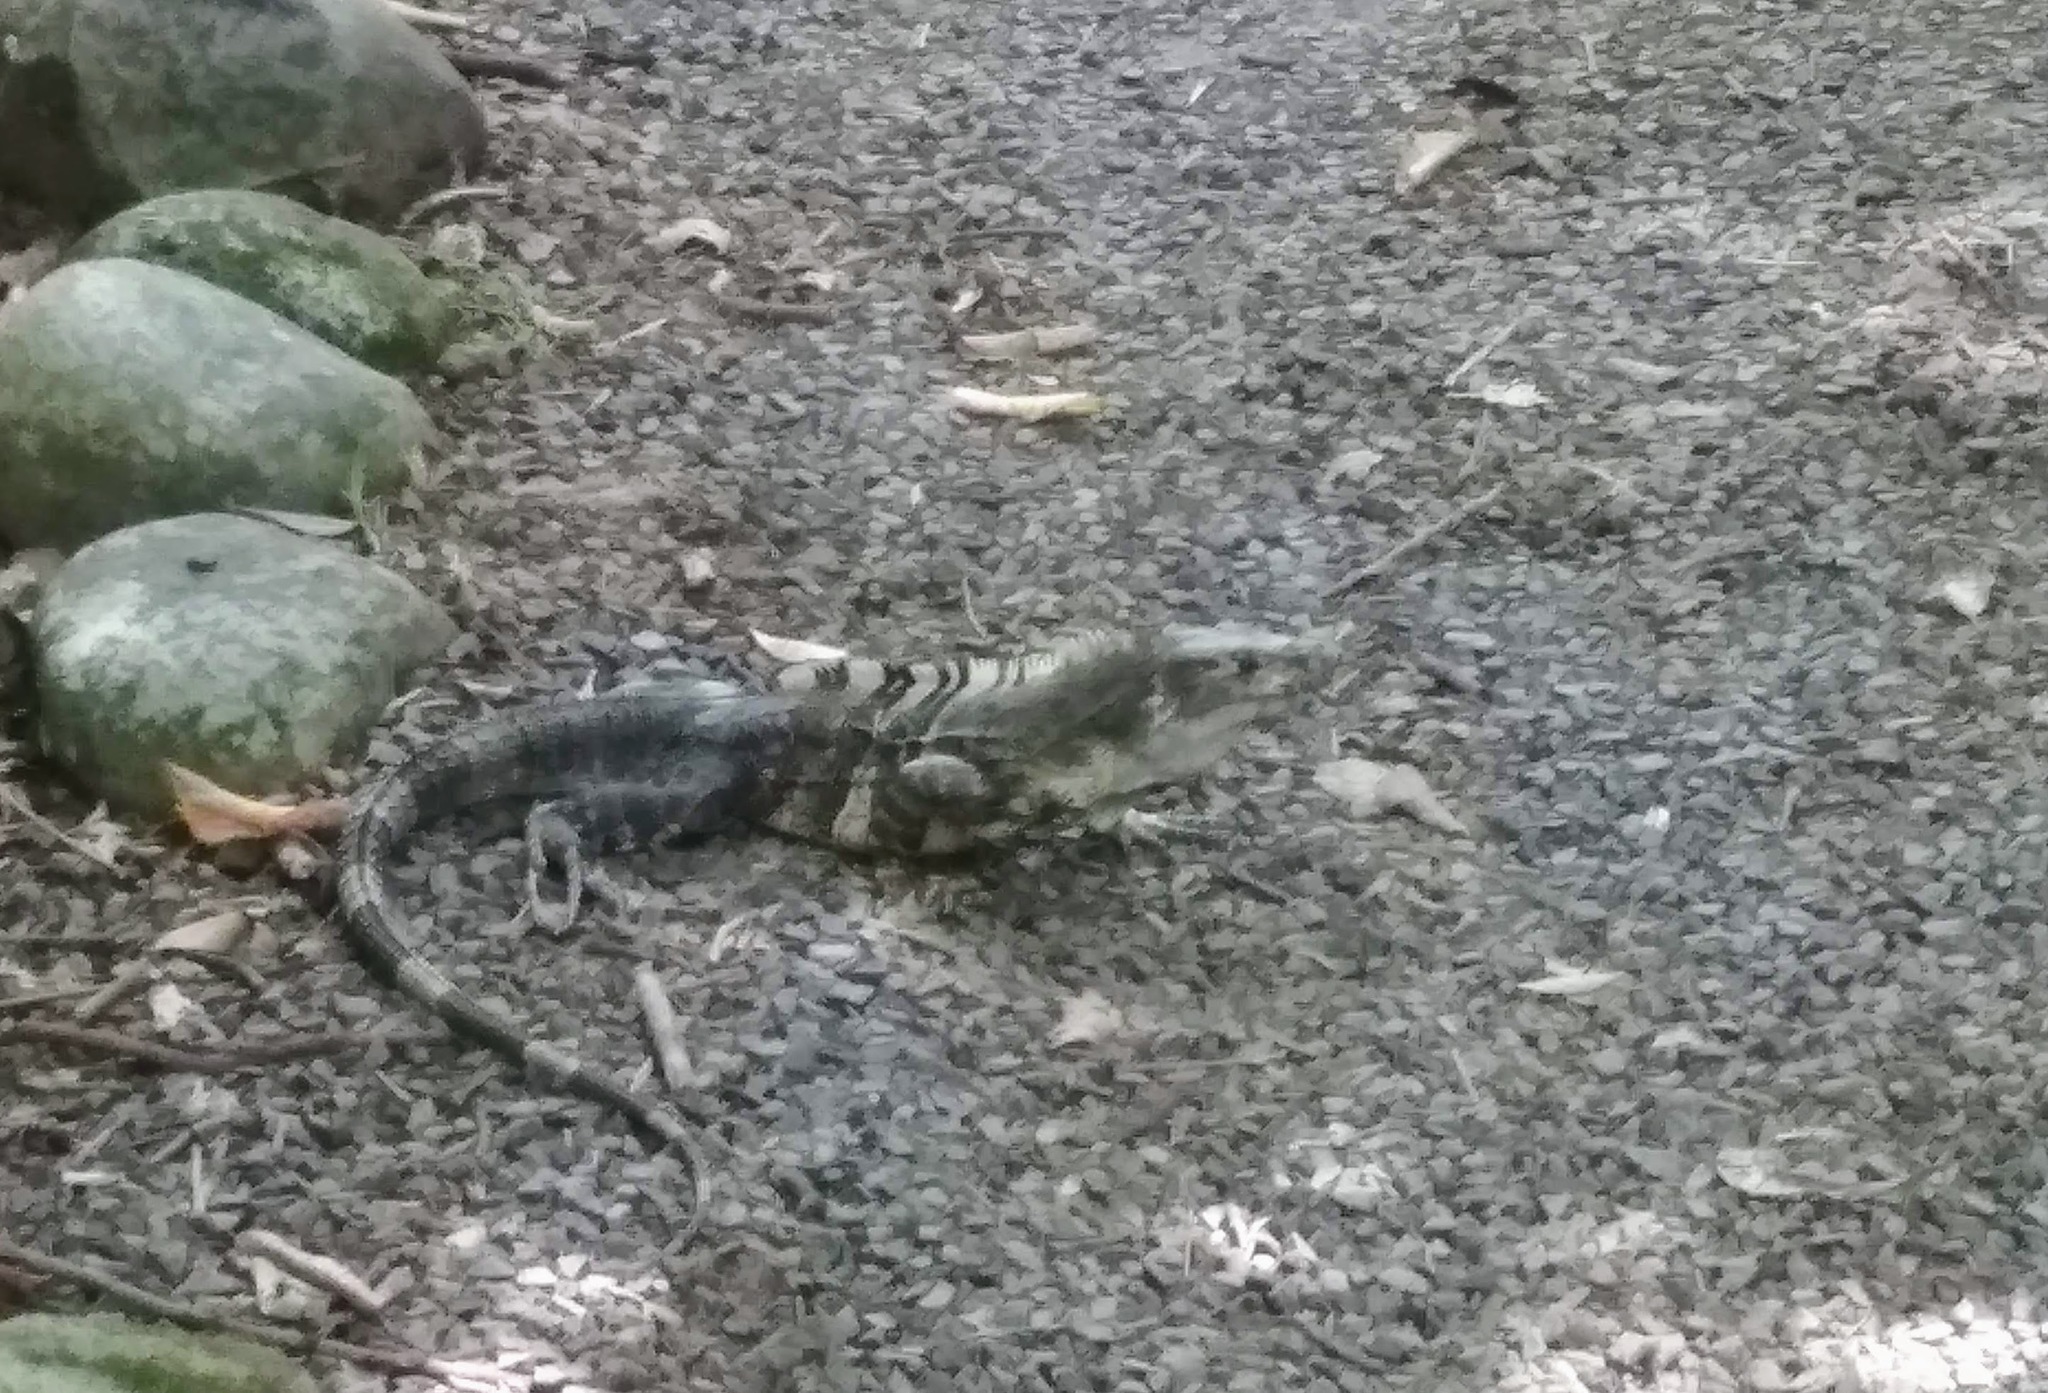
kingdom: Animalia
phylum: Chordata
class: Squamata
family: Iguanidae
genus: Ctenosaura
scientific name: Ctenosaura similis
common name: Black spiny-tailed iguana
